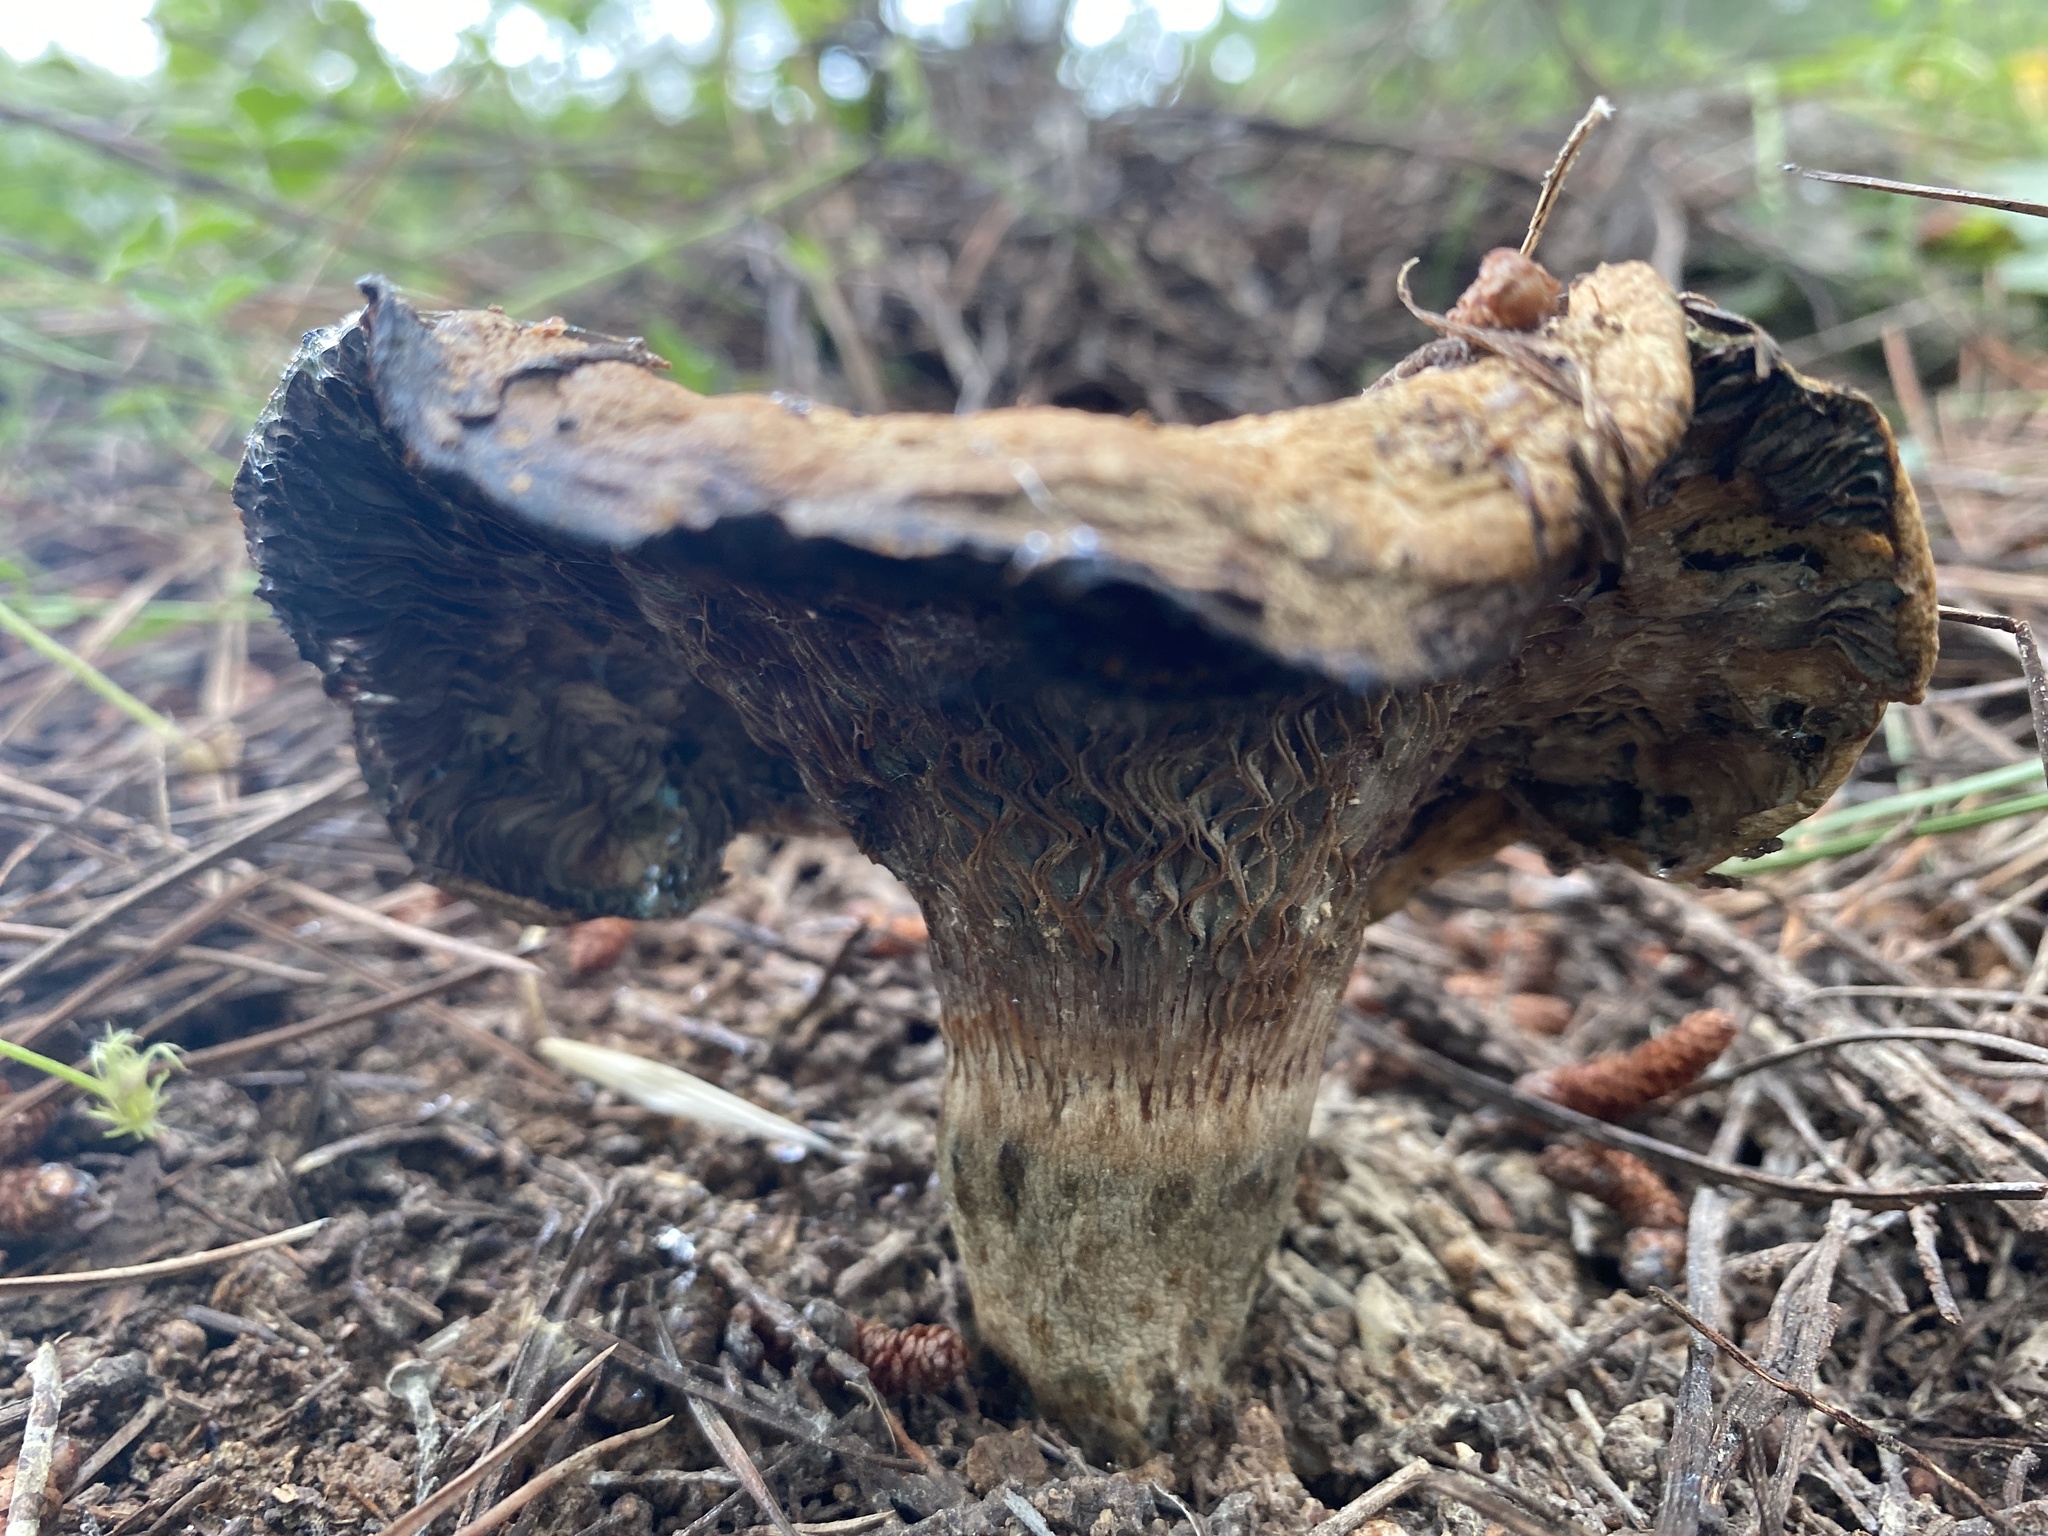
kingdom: Fungi
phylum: Basidiomycota
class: Agaricomycetes
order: Russulales
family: Russulaceae
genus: Lactarius
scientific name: Lactarius deliciosus
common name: Saffron milk-cap
